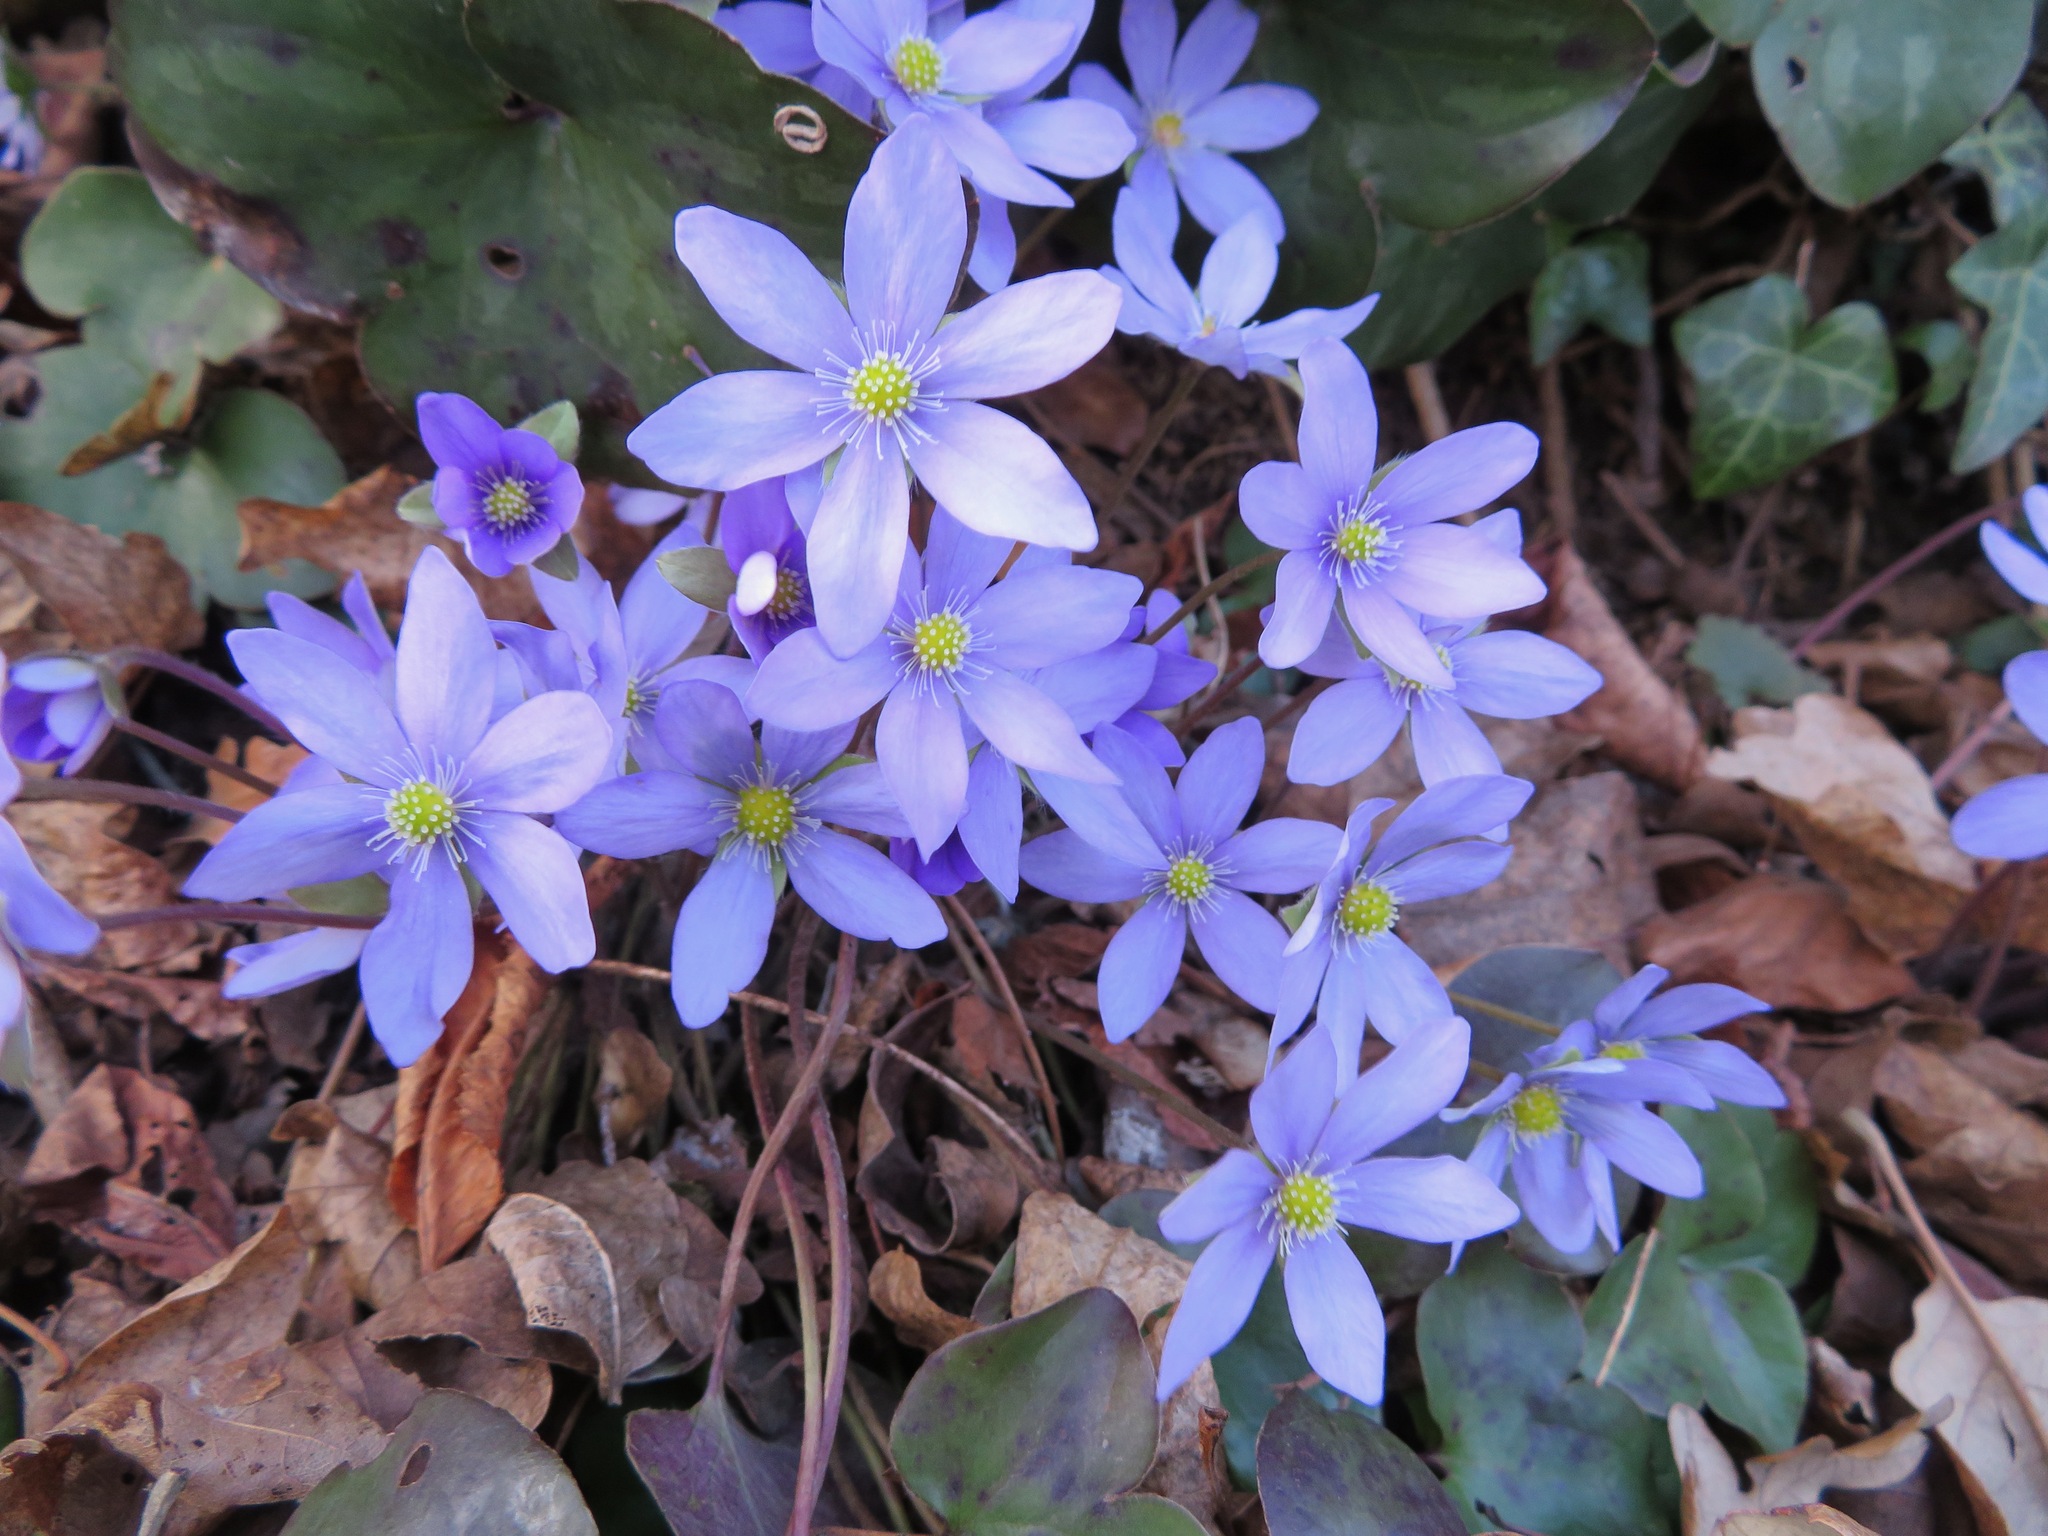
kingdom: Plantae
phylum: Tracheophyta
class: Magnoliopsida
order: Ranunculales
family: Ranunculaceae
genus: Hepatica
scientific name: Hepatica nobilis
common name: Liverleaf
